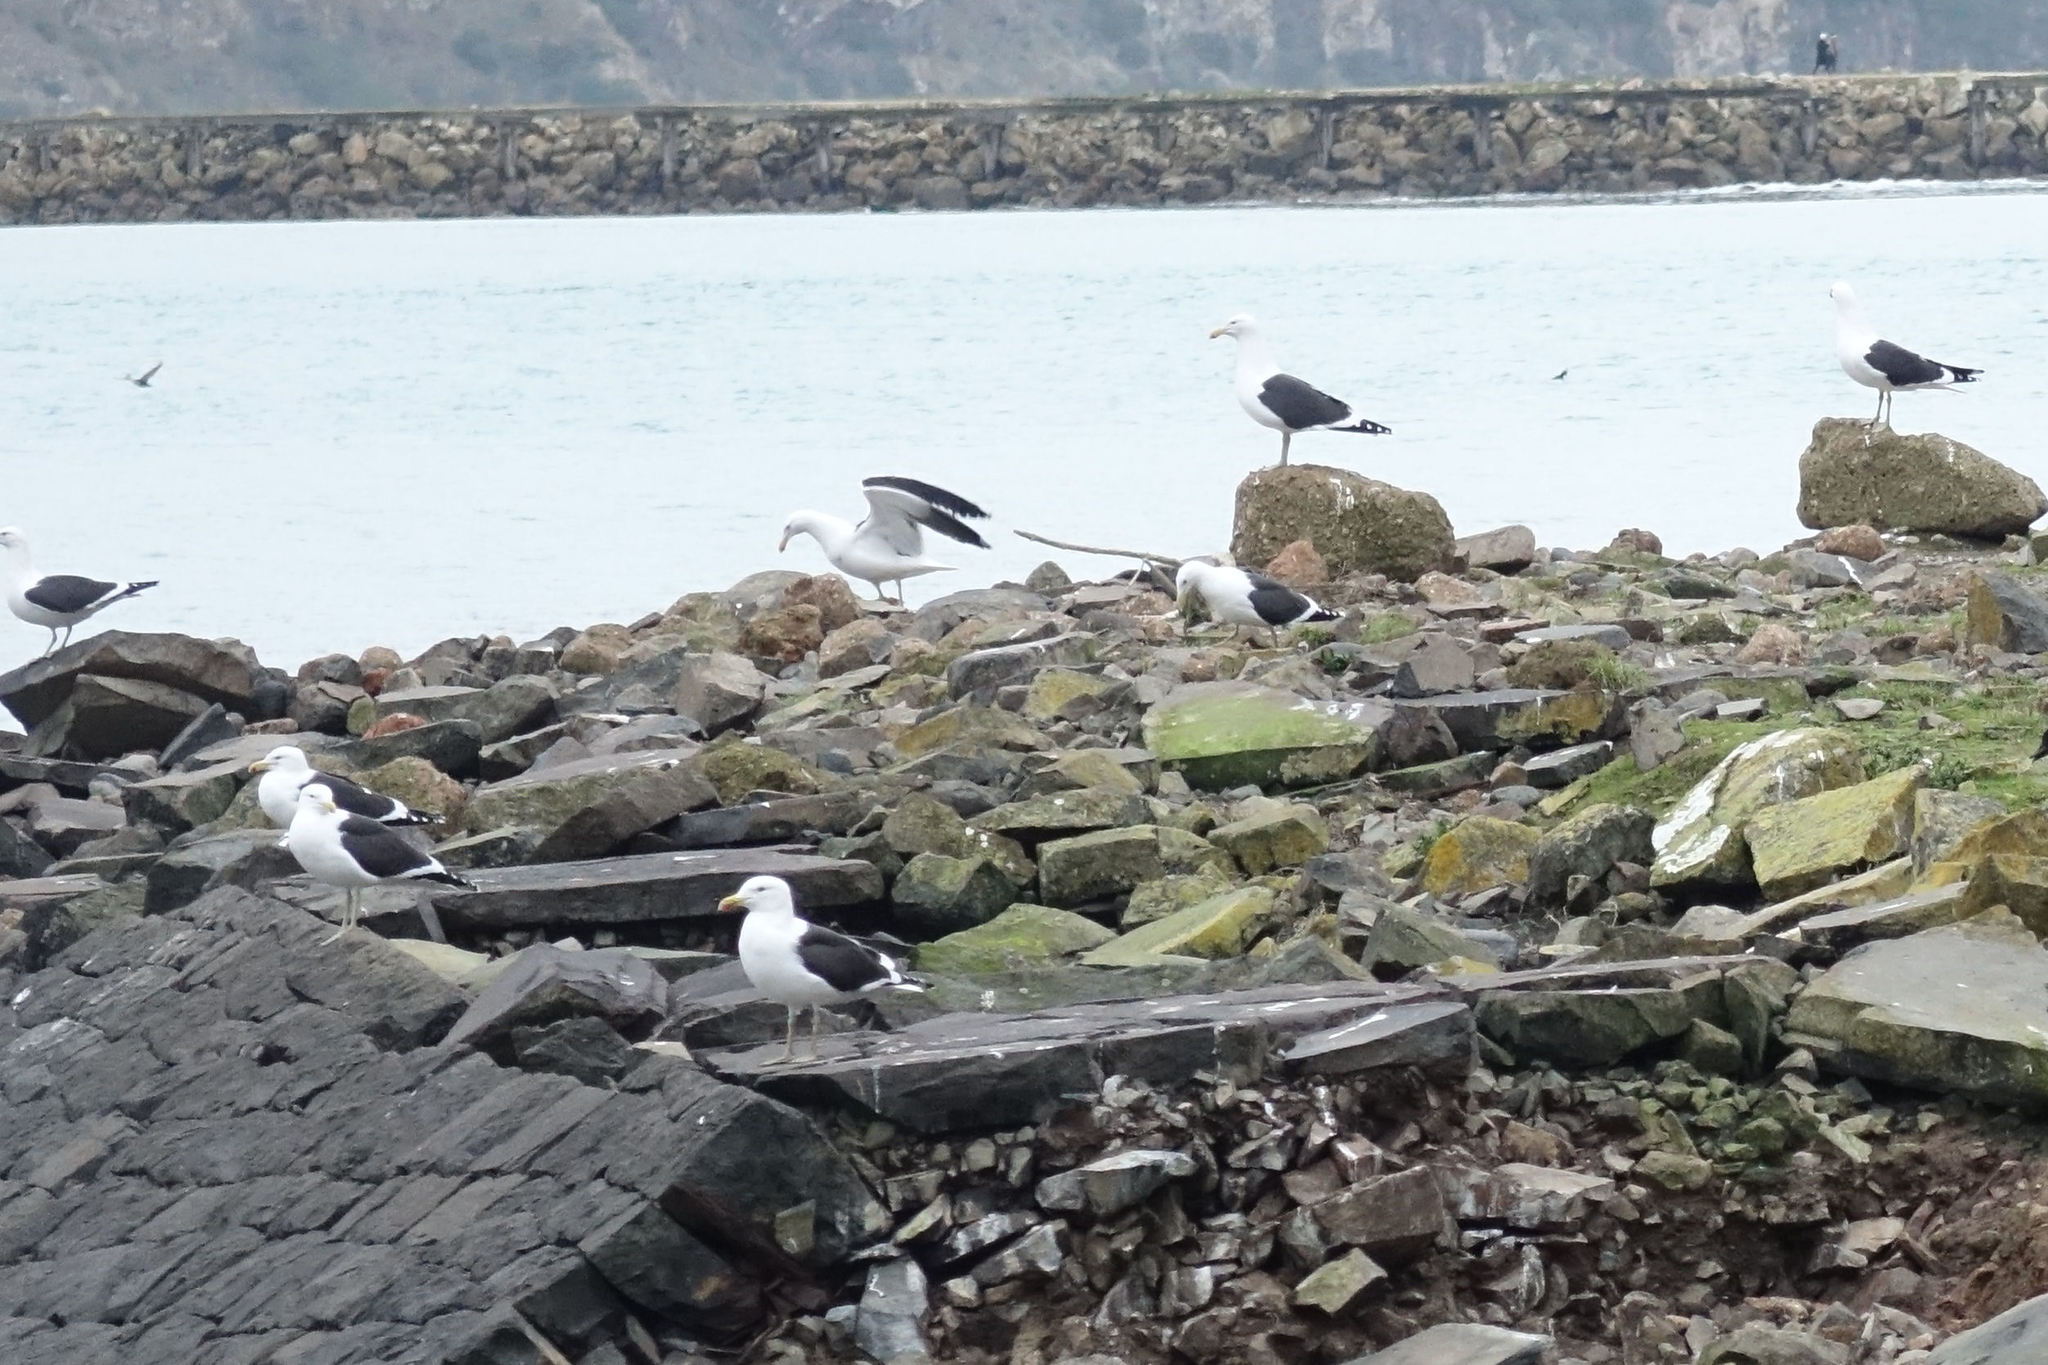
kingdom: Animalia
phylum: Chordata
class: Aves
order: Charadriiformes
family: Laridae
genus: Larus
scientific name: Larus dominicanus
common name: Kelp gull
